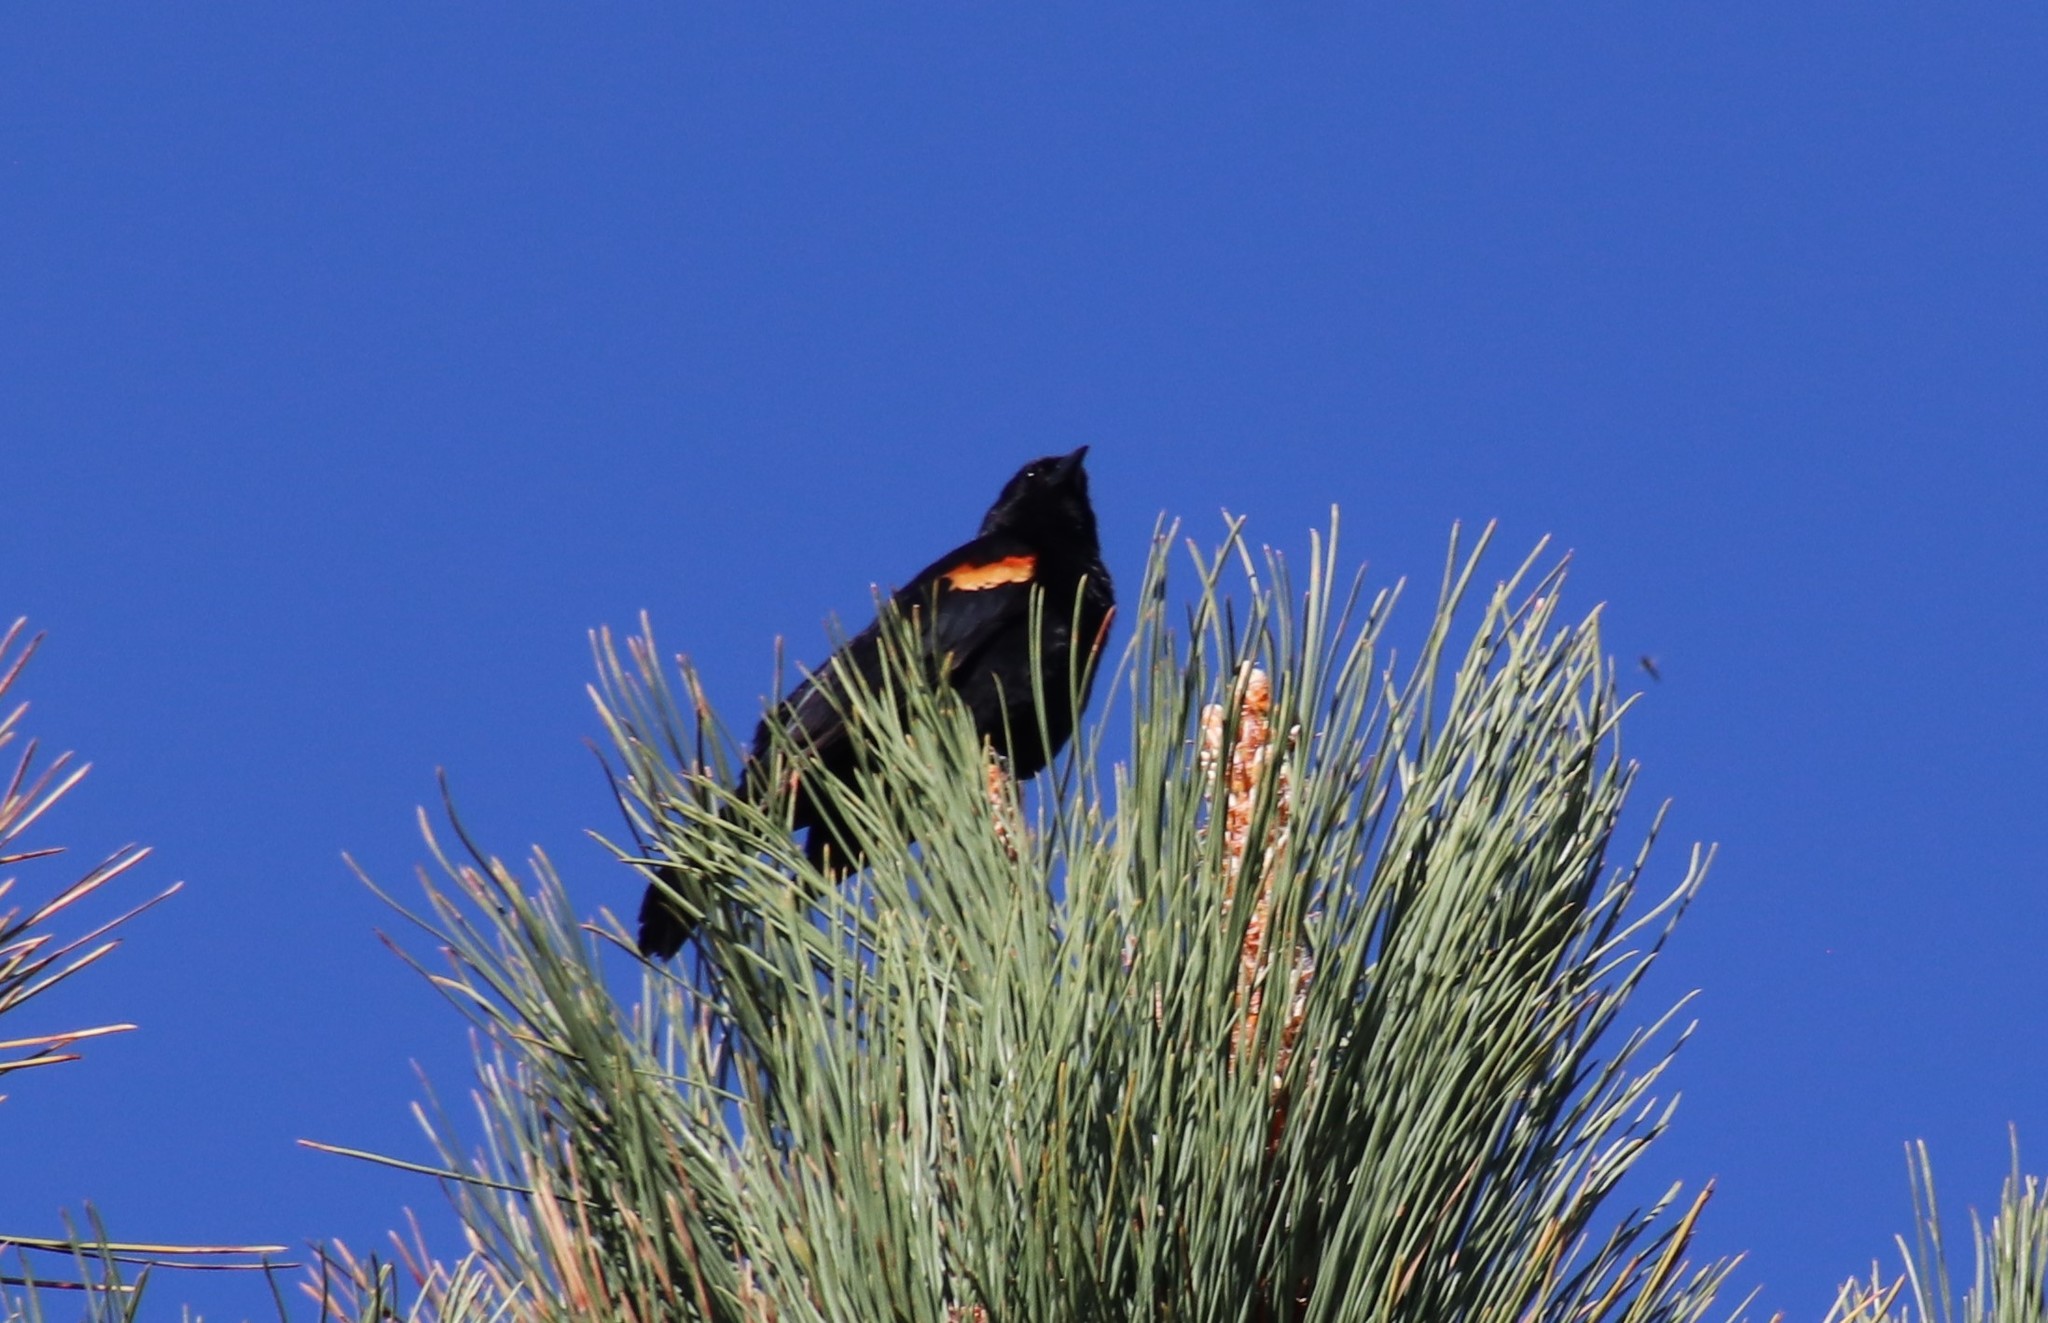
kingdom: Animalia
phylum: Chordata
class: Aves
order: Passeriformes
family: Icteridae
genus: Agelaius
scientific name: Agelaius phoeniceus
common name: Red-winged blackbird
